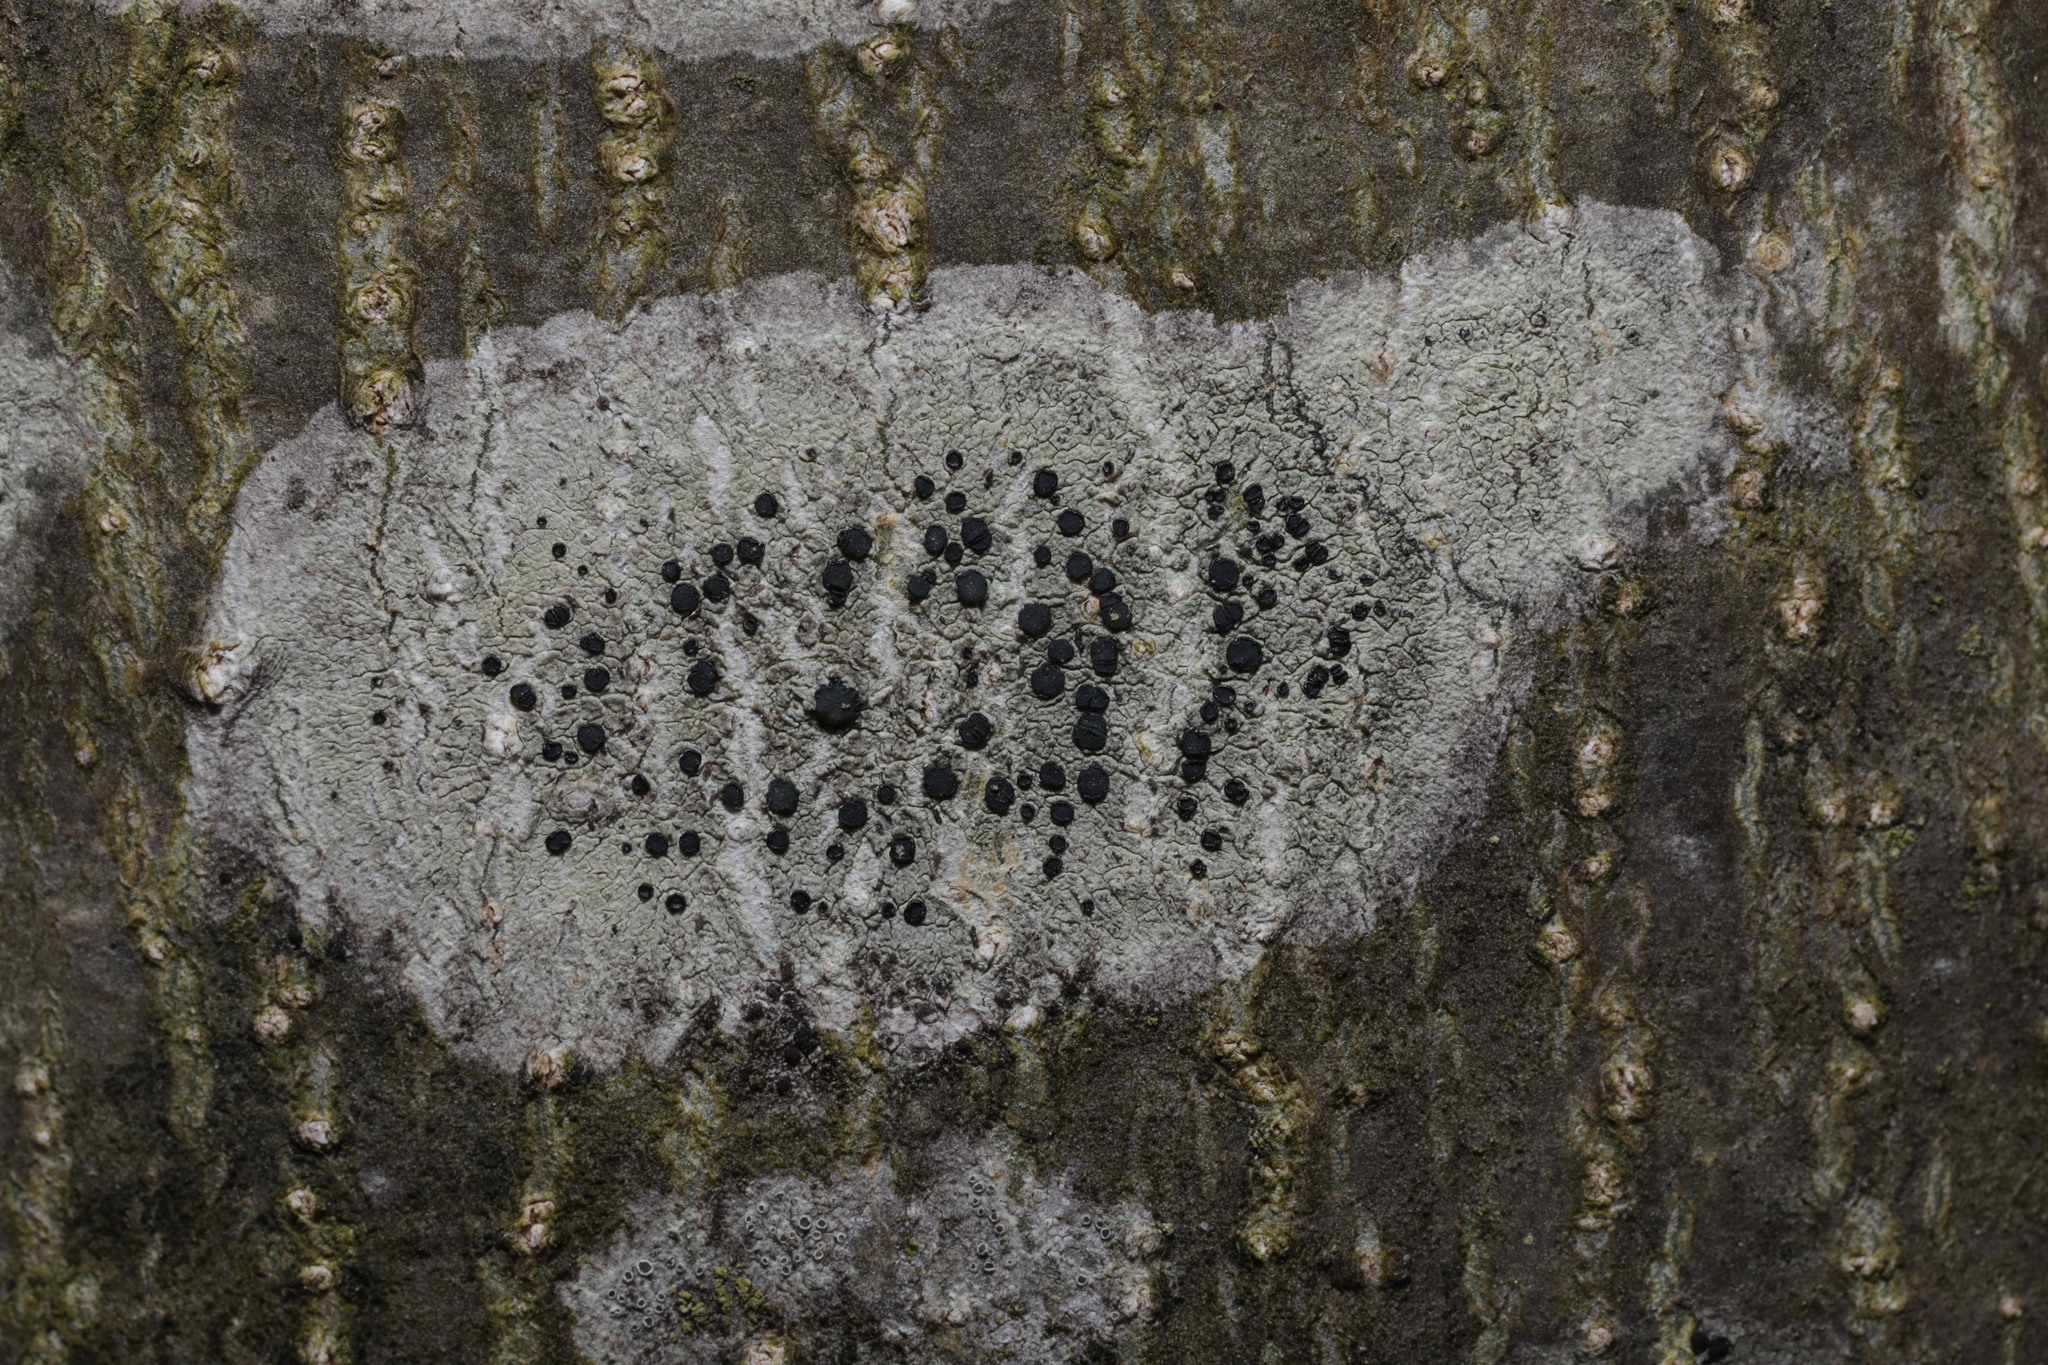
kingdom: Fungi
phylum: Ascomycota
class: Lecanoromycetes
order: Lecanorales
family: Lecanoraceae
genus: Lecidella
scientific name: Lecidella elaeochroma
